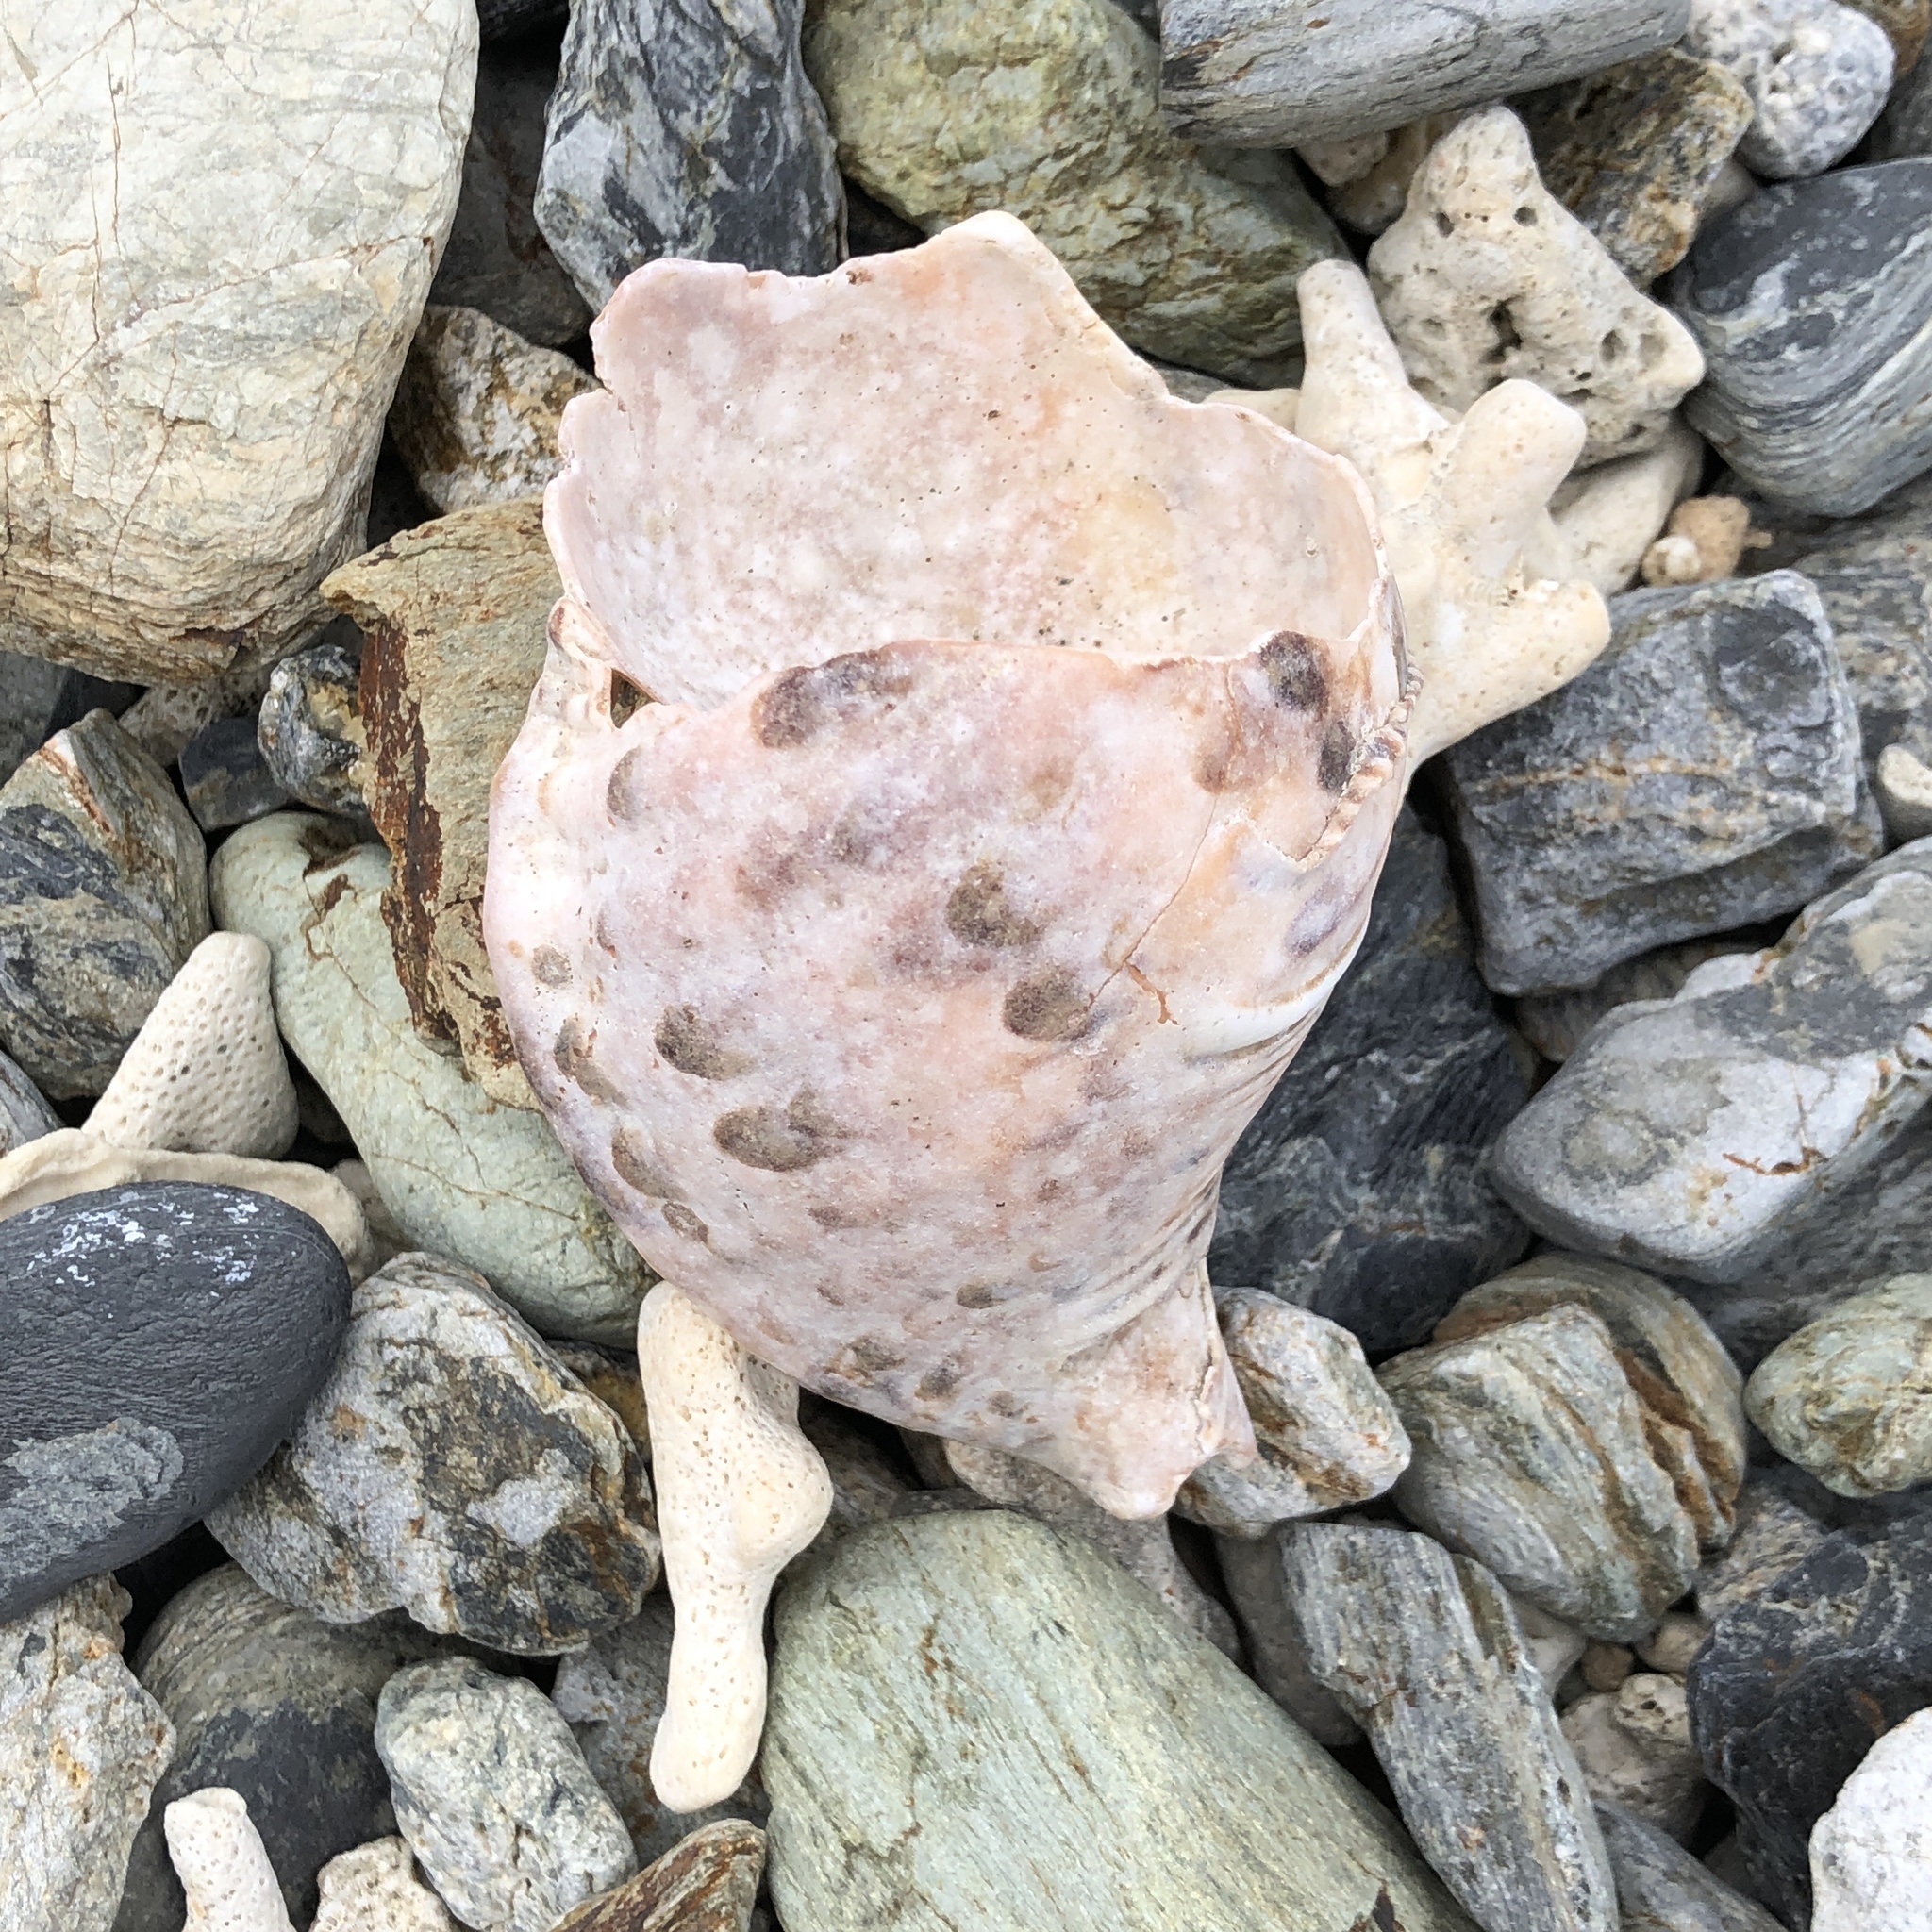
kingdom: Animalia
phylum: Mollusca
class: Gastropoda
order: Littorinimorpha
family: Charoniidae
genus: Charonia
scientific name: Charonia tritonis
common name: Pacific triton
